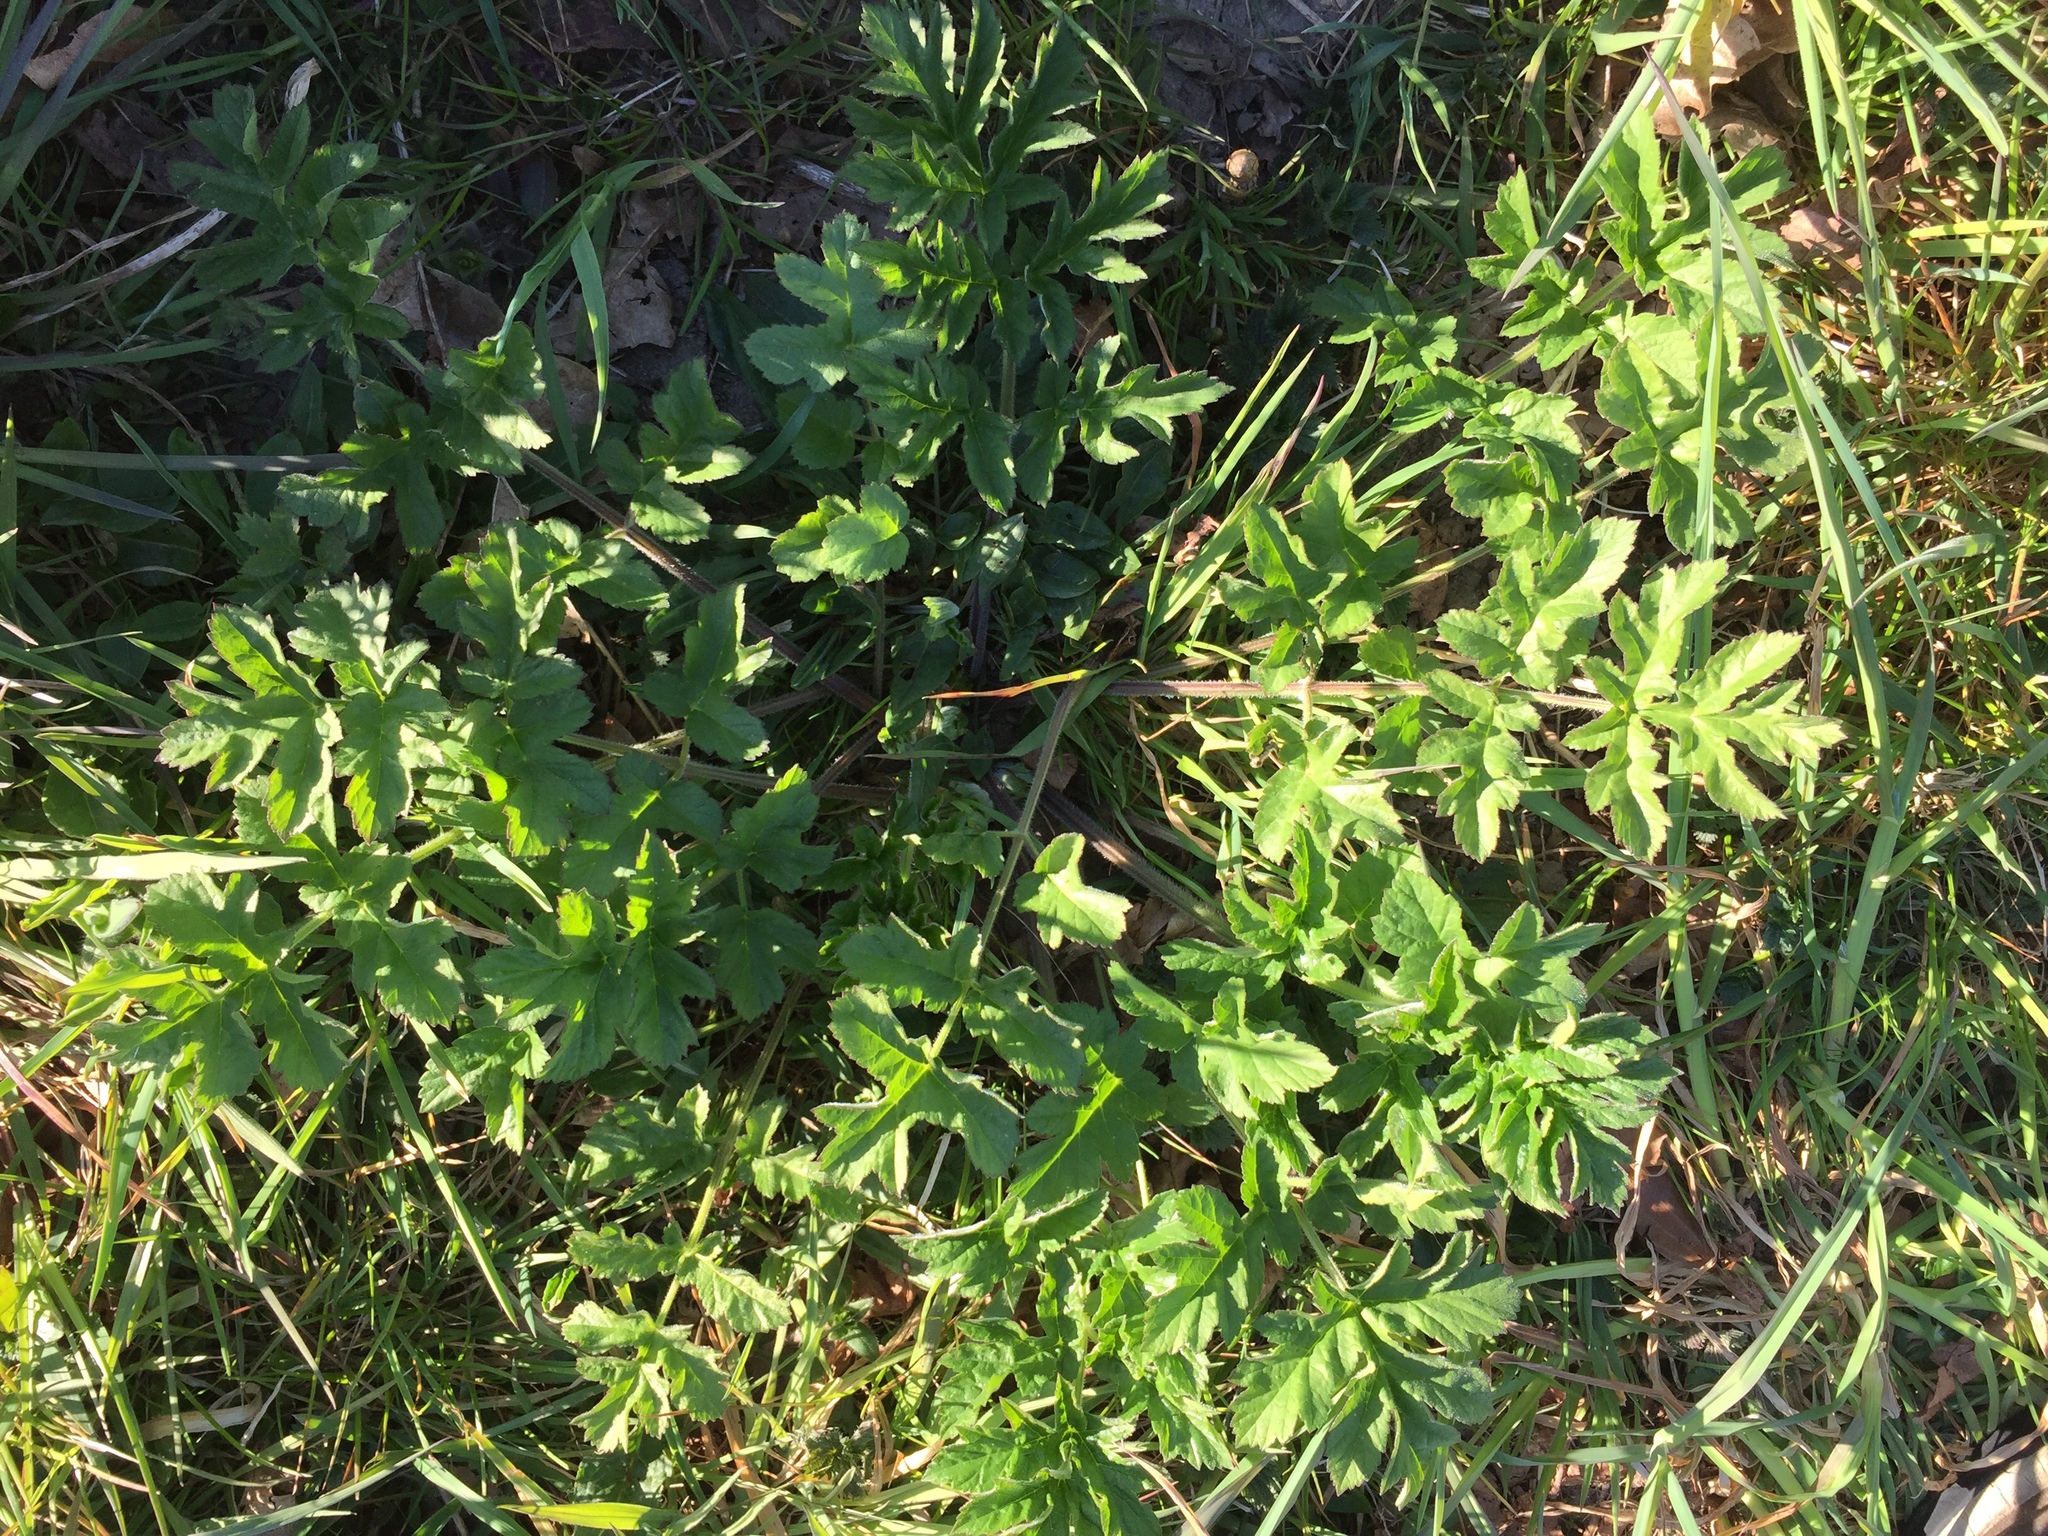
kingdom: Plantae
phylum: Tracheophyta
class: Magnoliopsida
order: Apiales
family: Apiaceae
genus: Heracleum
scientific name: Heracleum sphondylium
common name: Hogweed
